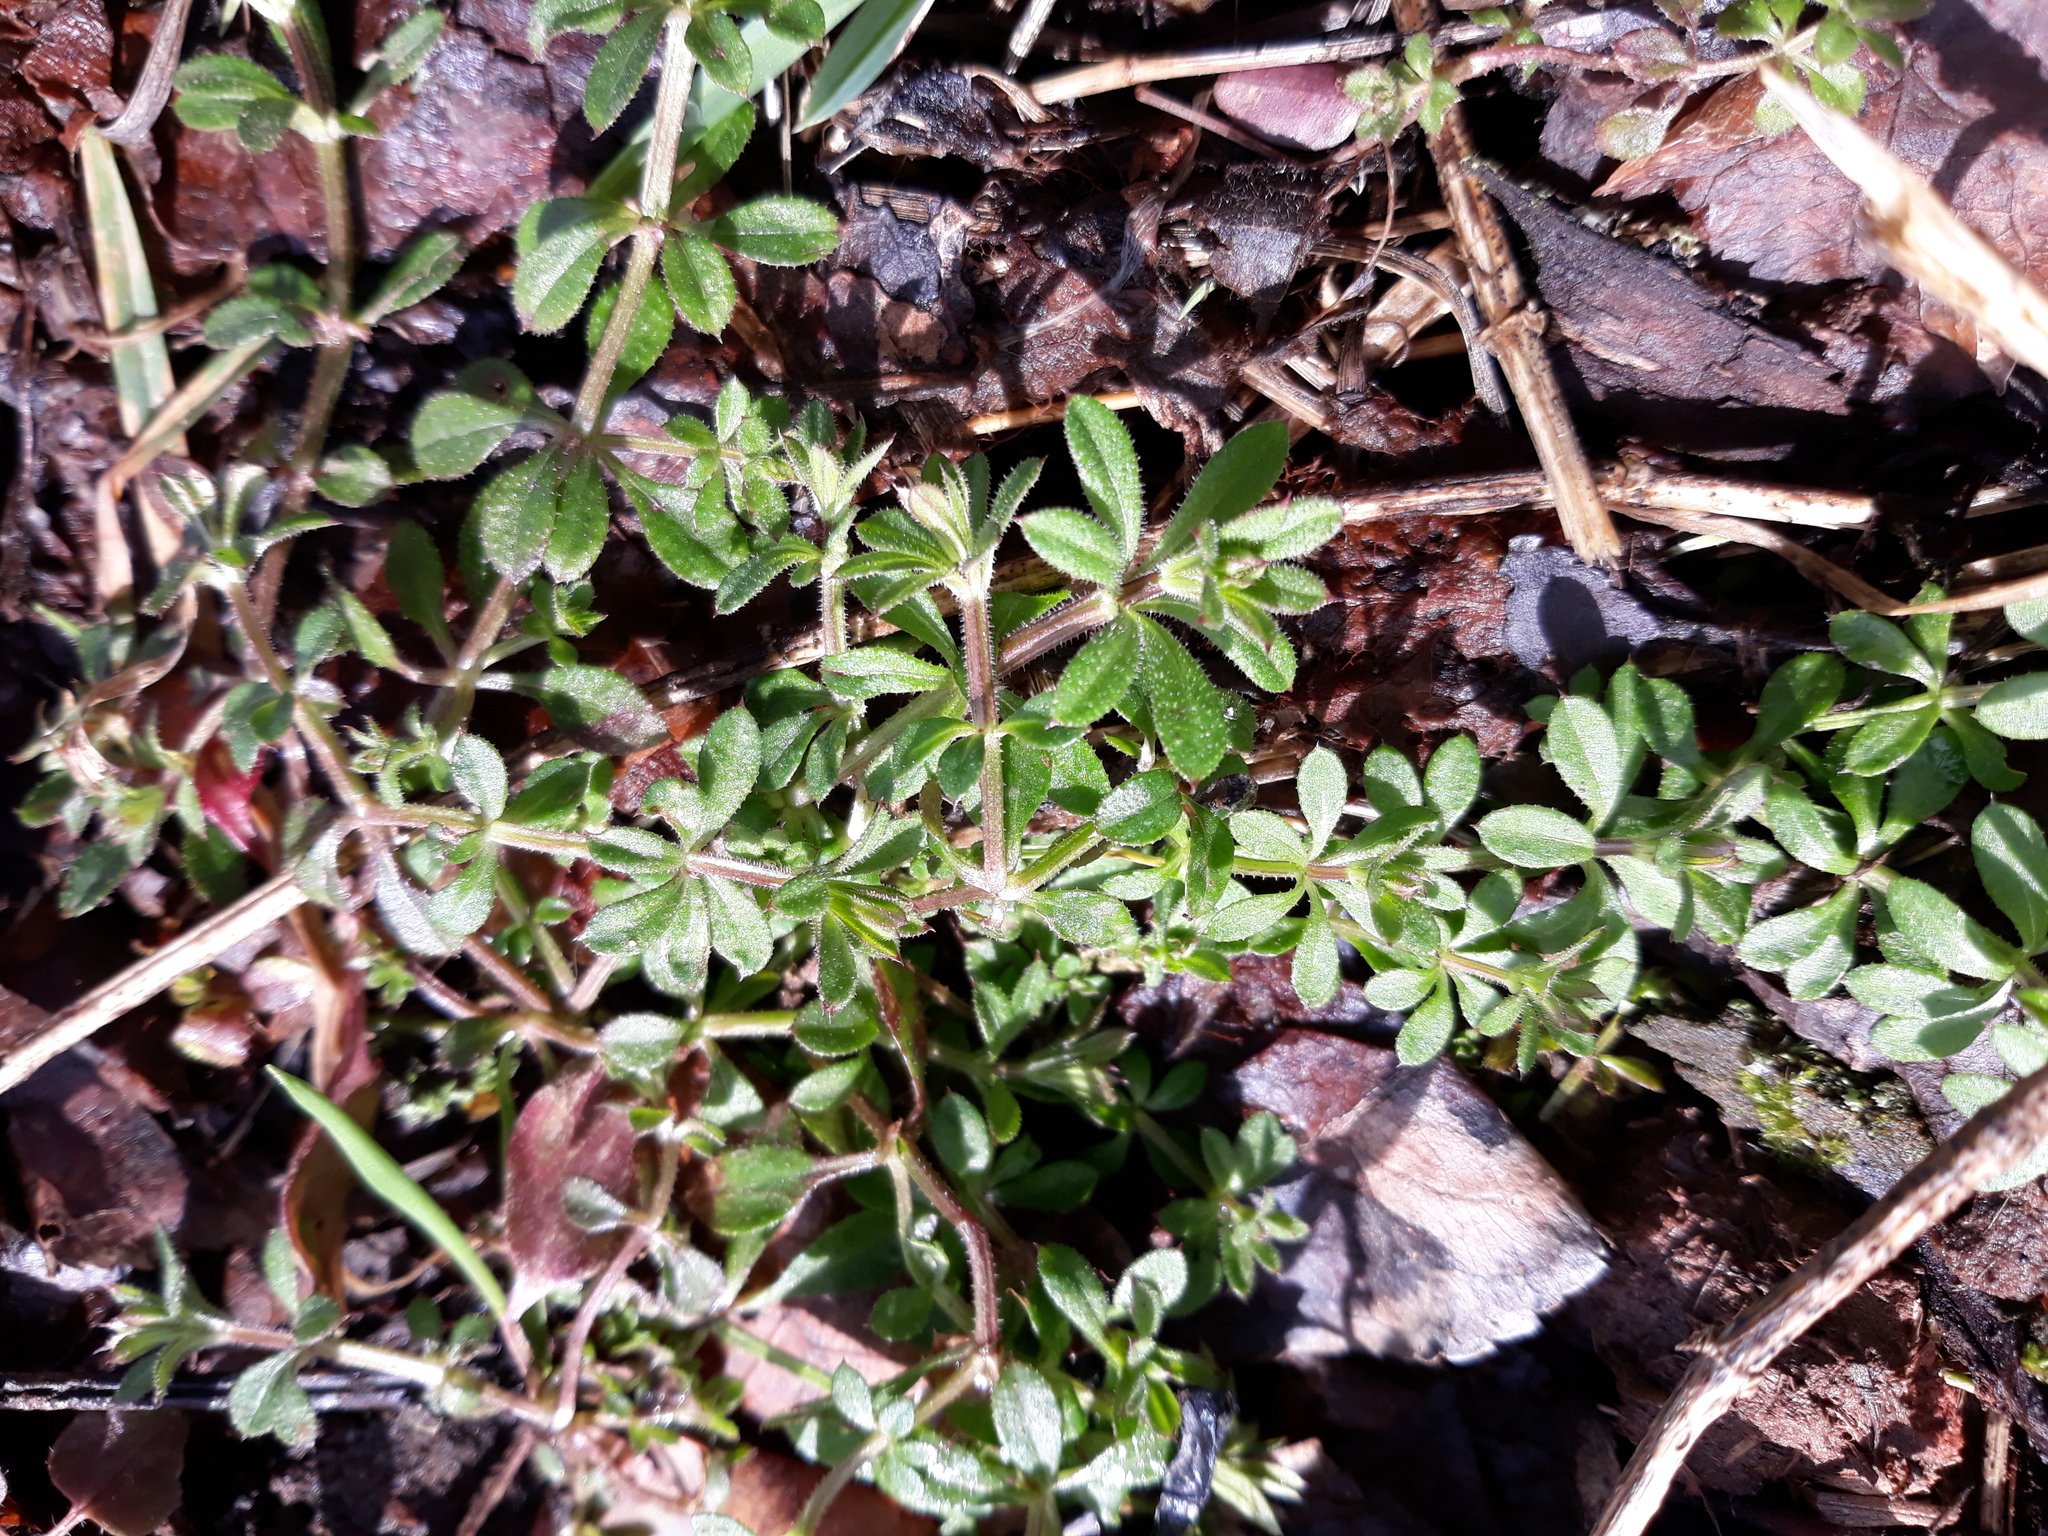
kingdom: Plantae
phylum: Tracheophyta
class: Magnoliopsida
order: Gentianales
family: Rubiaceae
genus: Galium
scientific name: Galium aparine
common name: Cleavers
